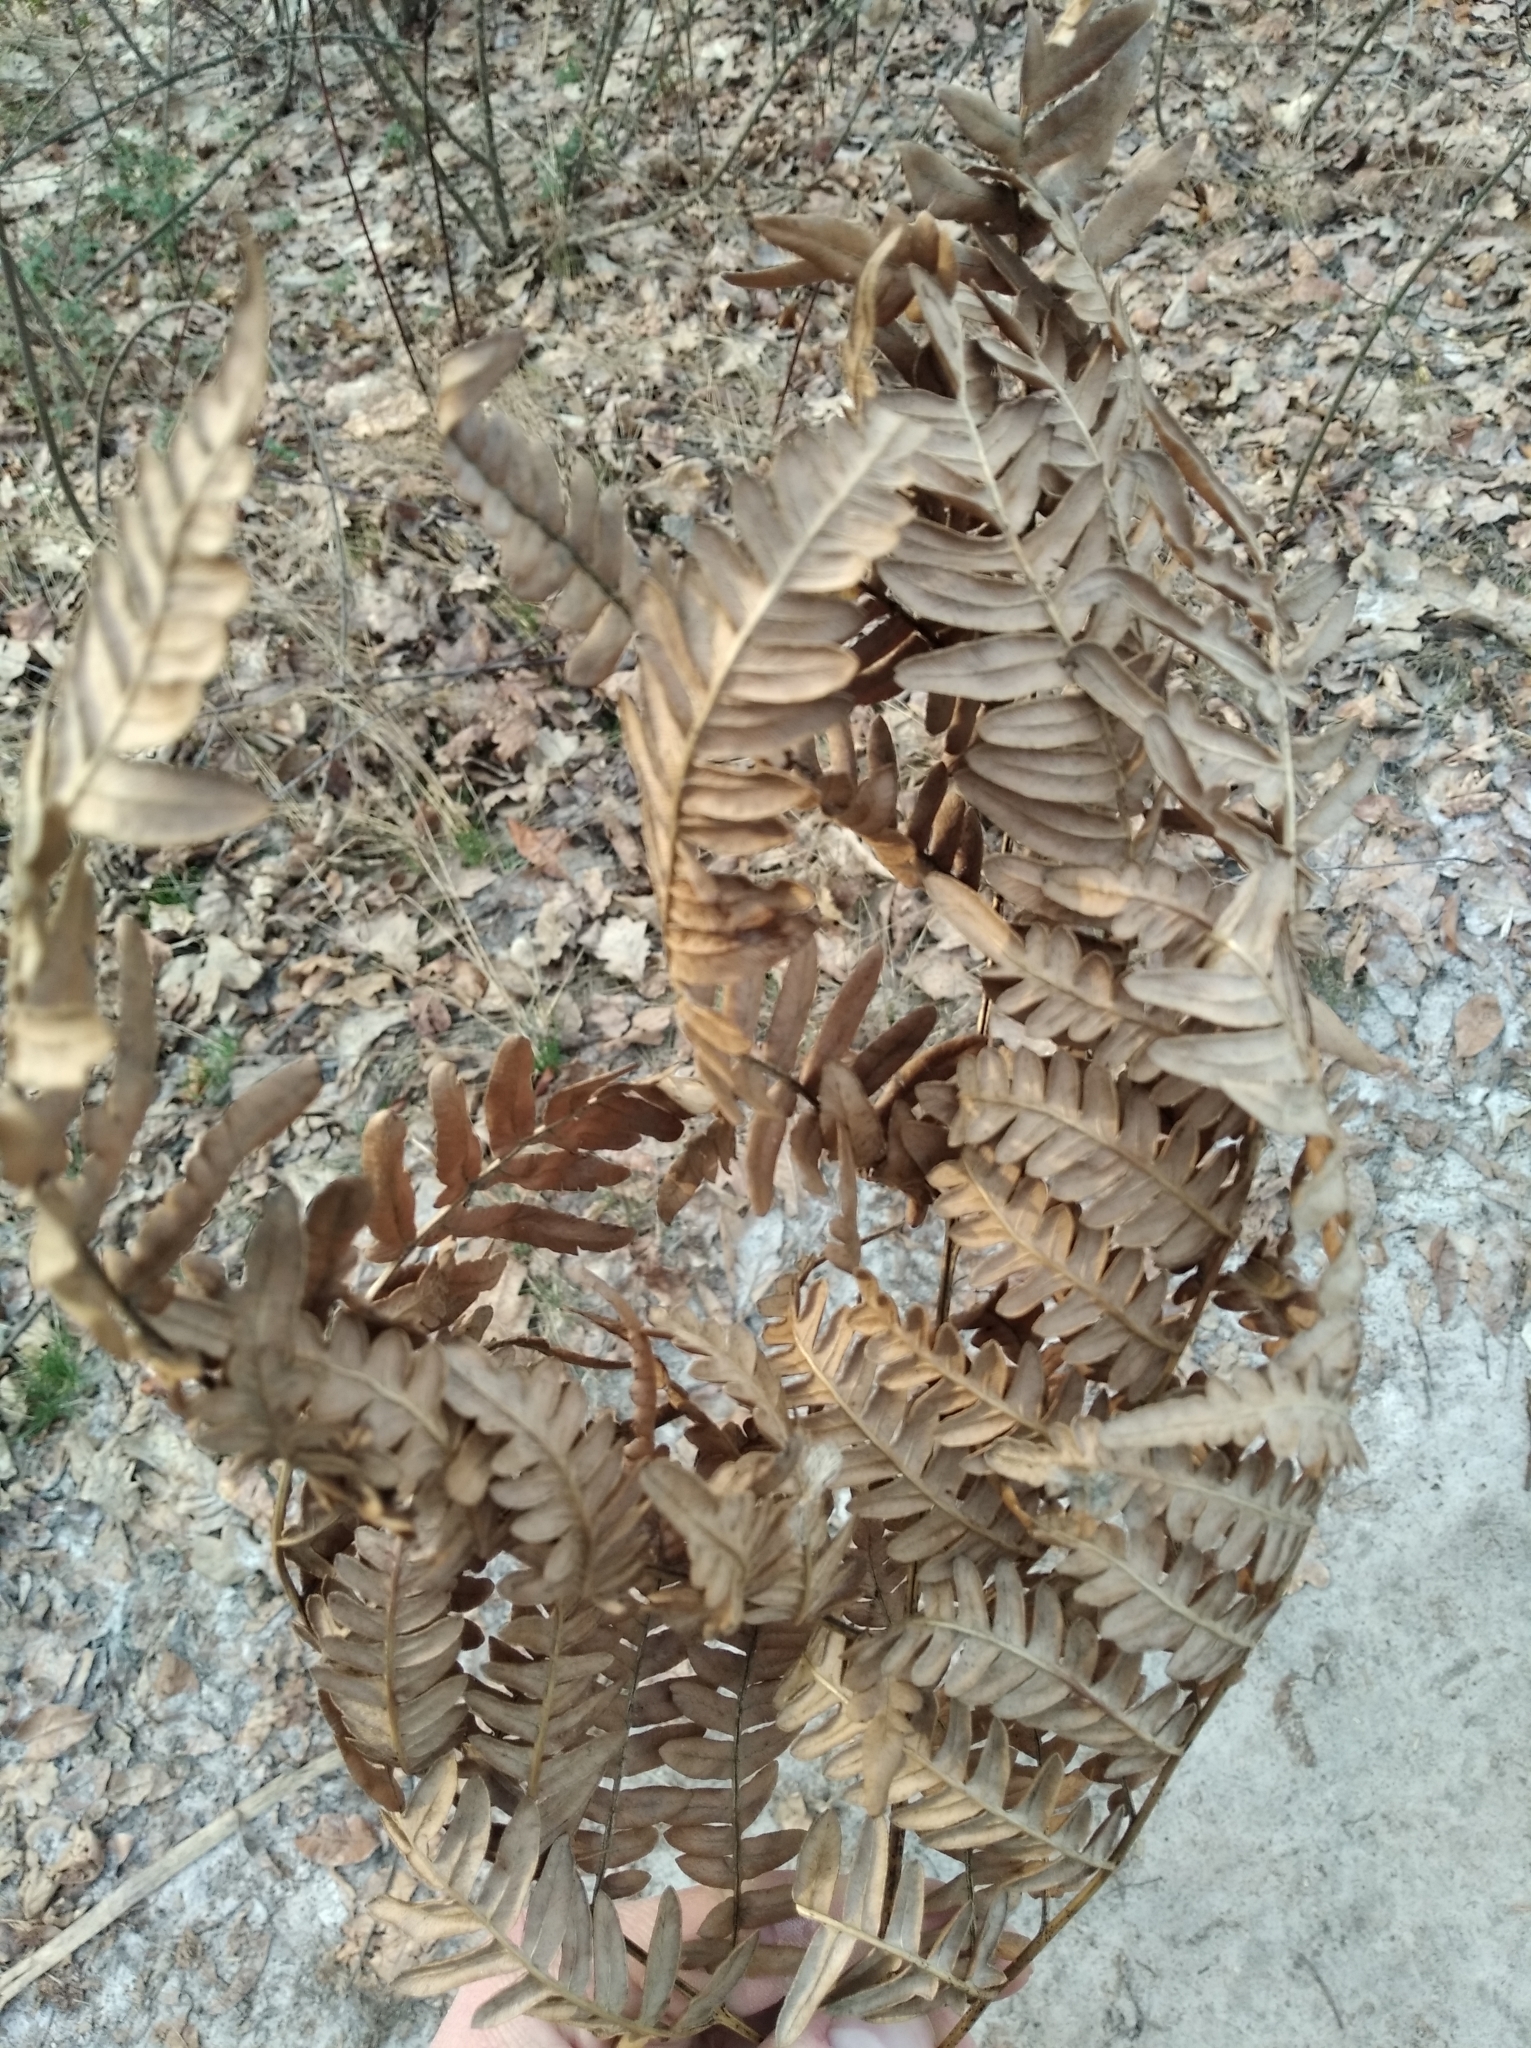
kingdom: Plantae
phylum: Tracheophyta
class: Polypodiopsida
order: Polypodiales
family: Dennstaedtiaceae
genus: Pteridium
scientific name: Pteridium aquilinum
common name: Bracken
